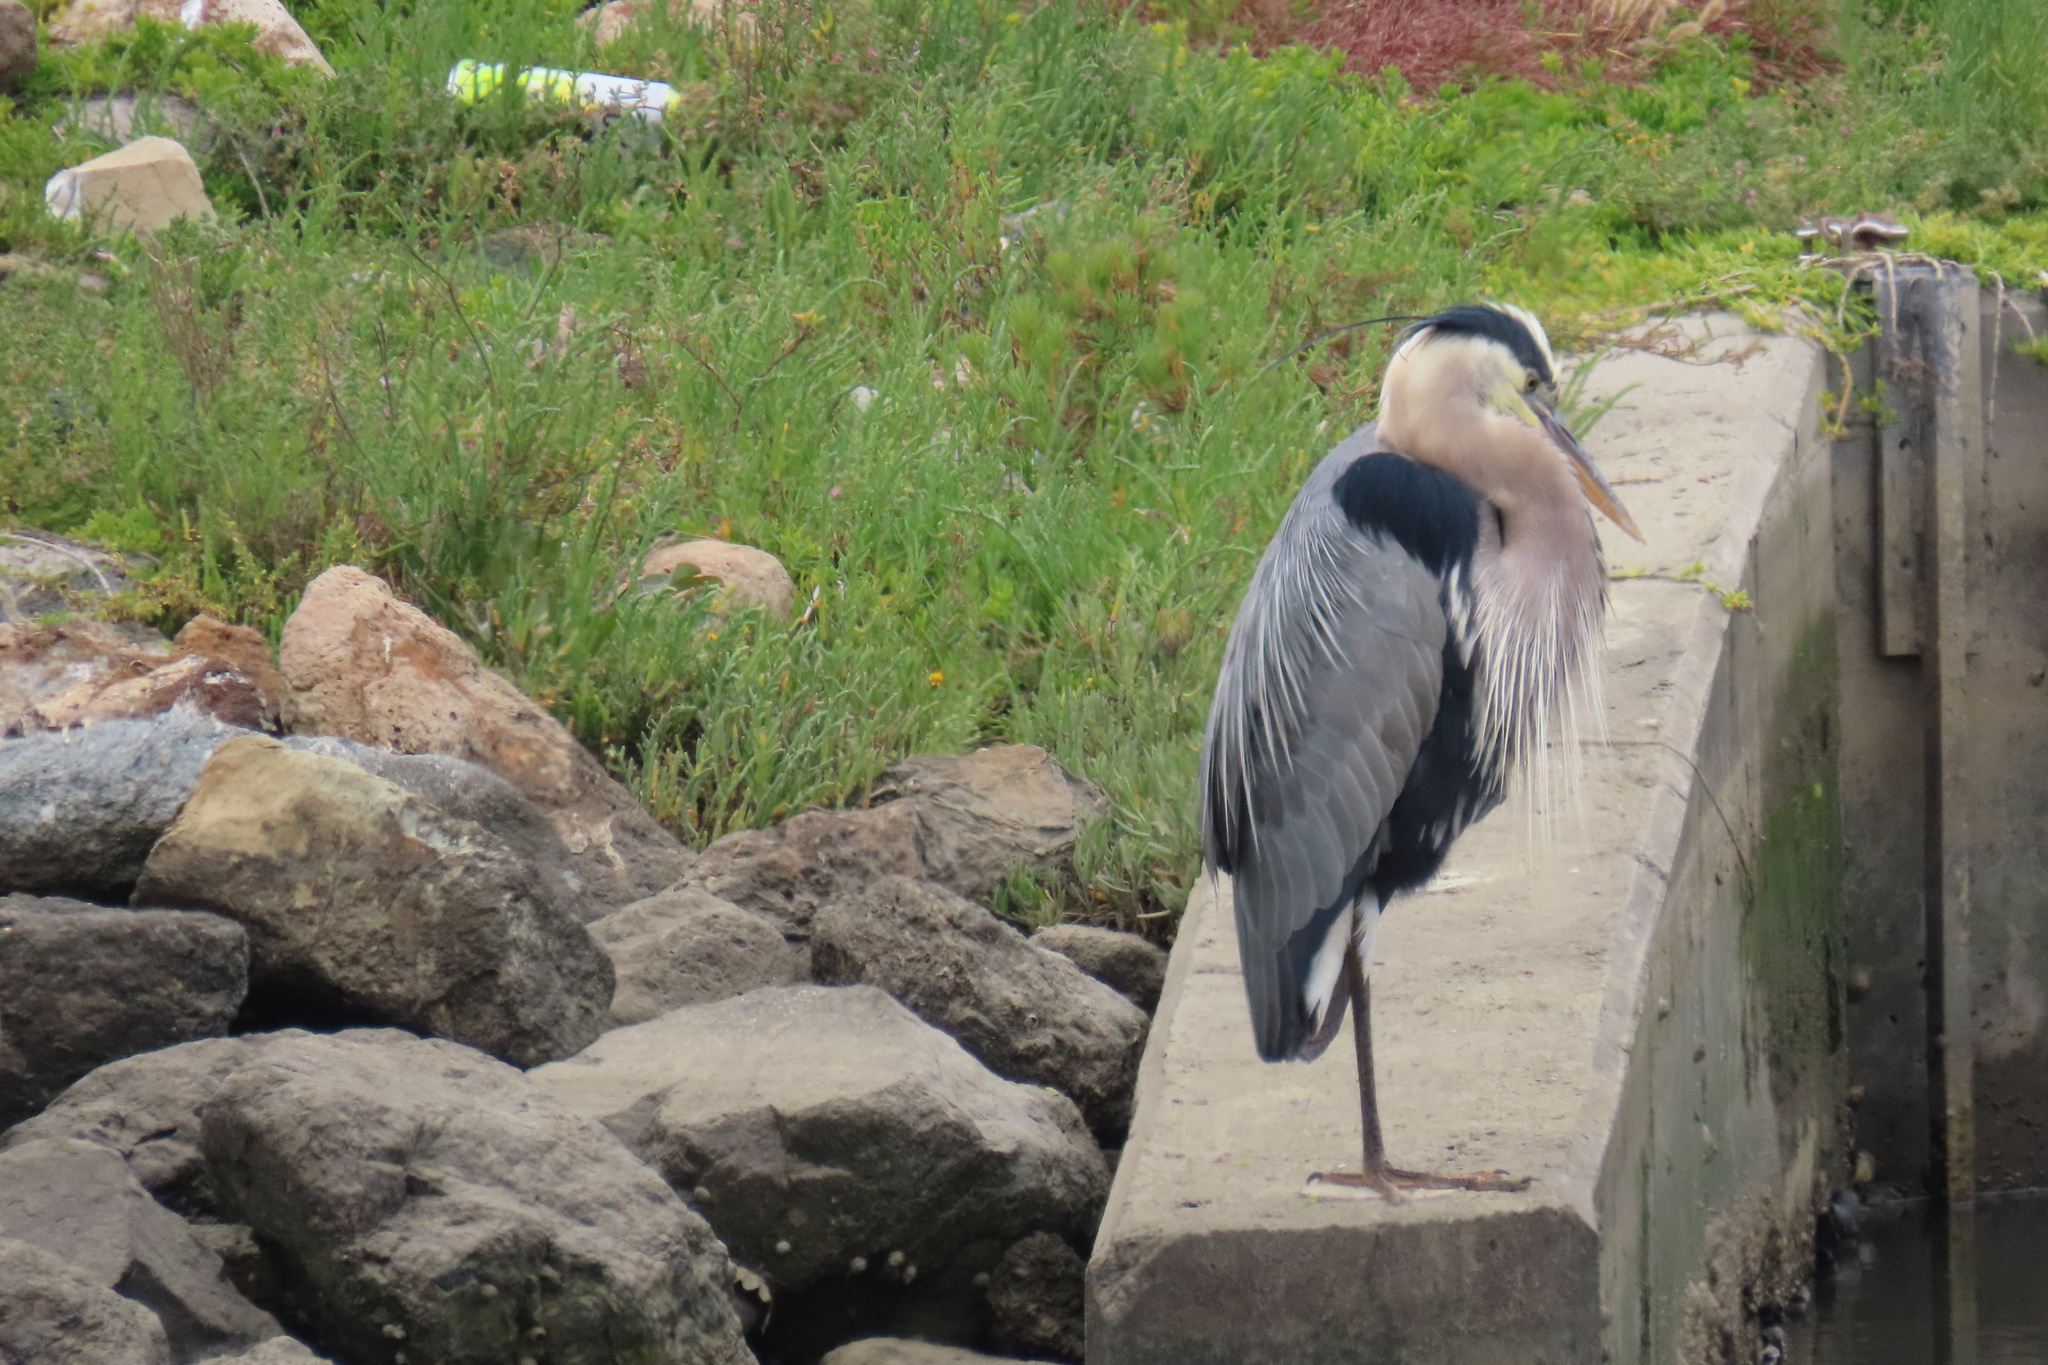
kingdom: Animalia
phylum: Chordata
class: Aves
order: Pelecaniformes
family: Ardeidae
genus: Ardea
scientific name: Ardea herodias
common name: Great blue heron
